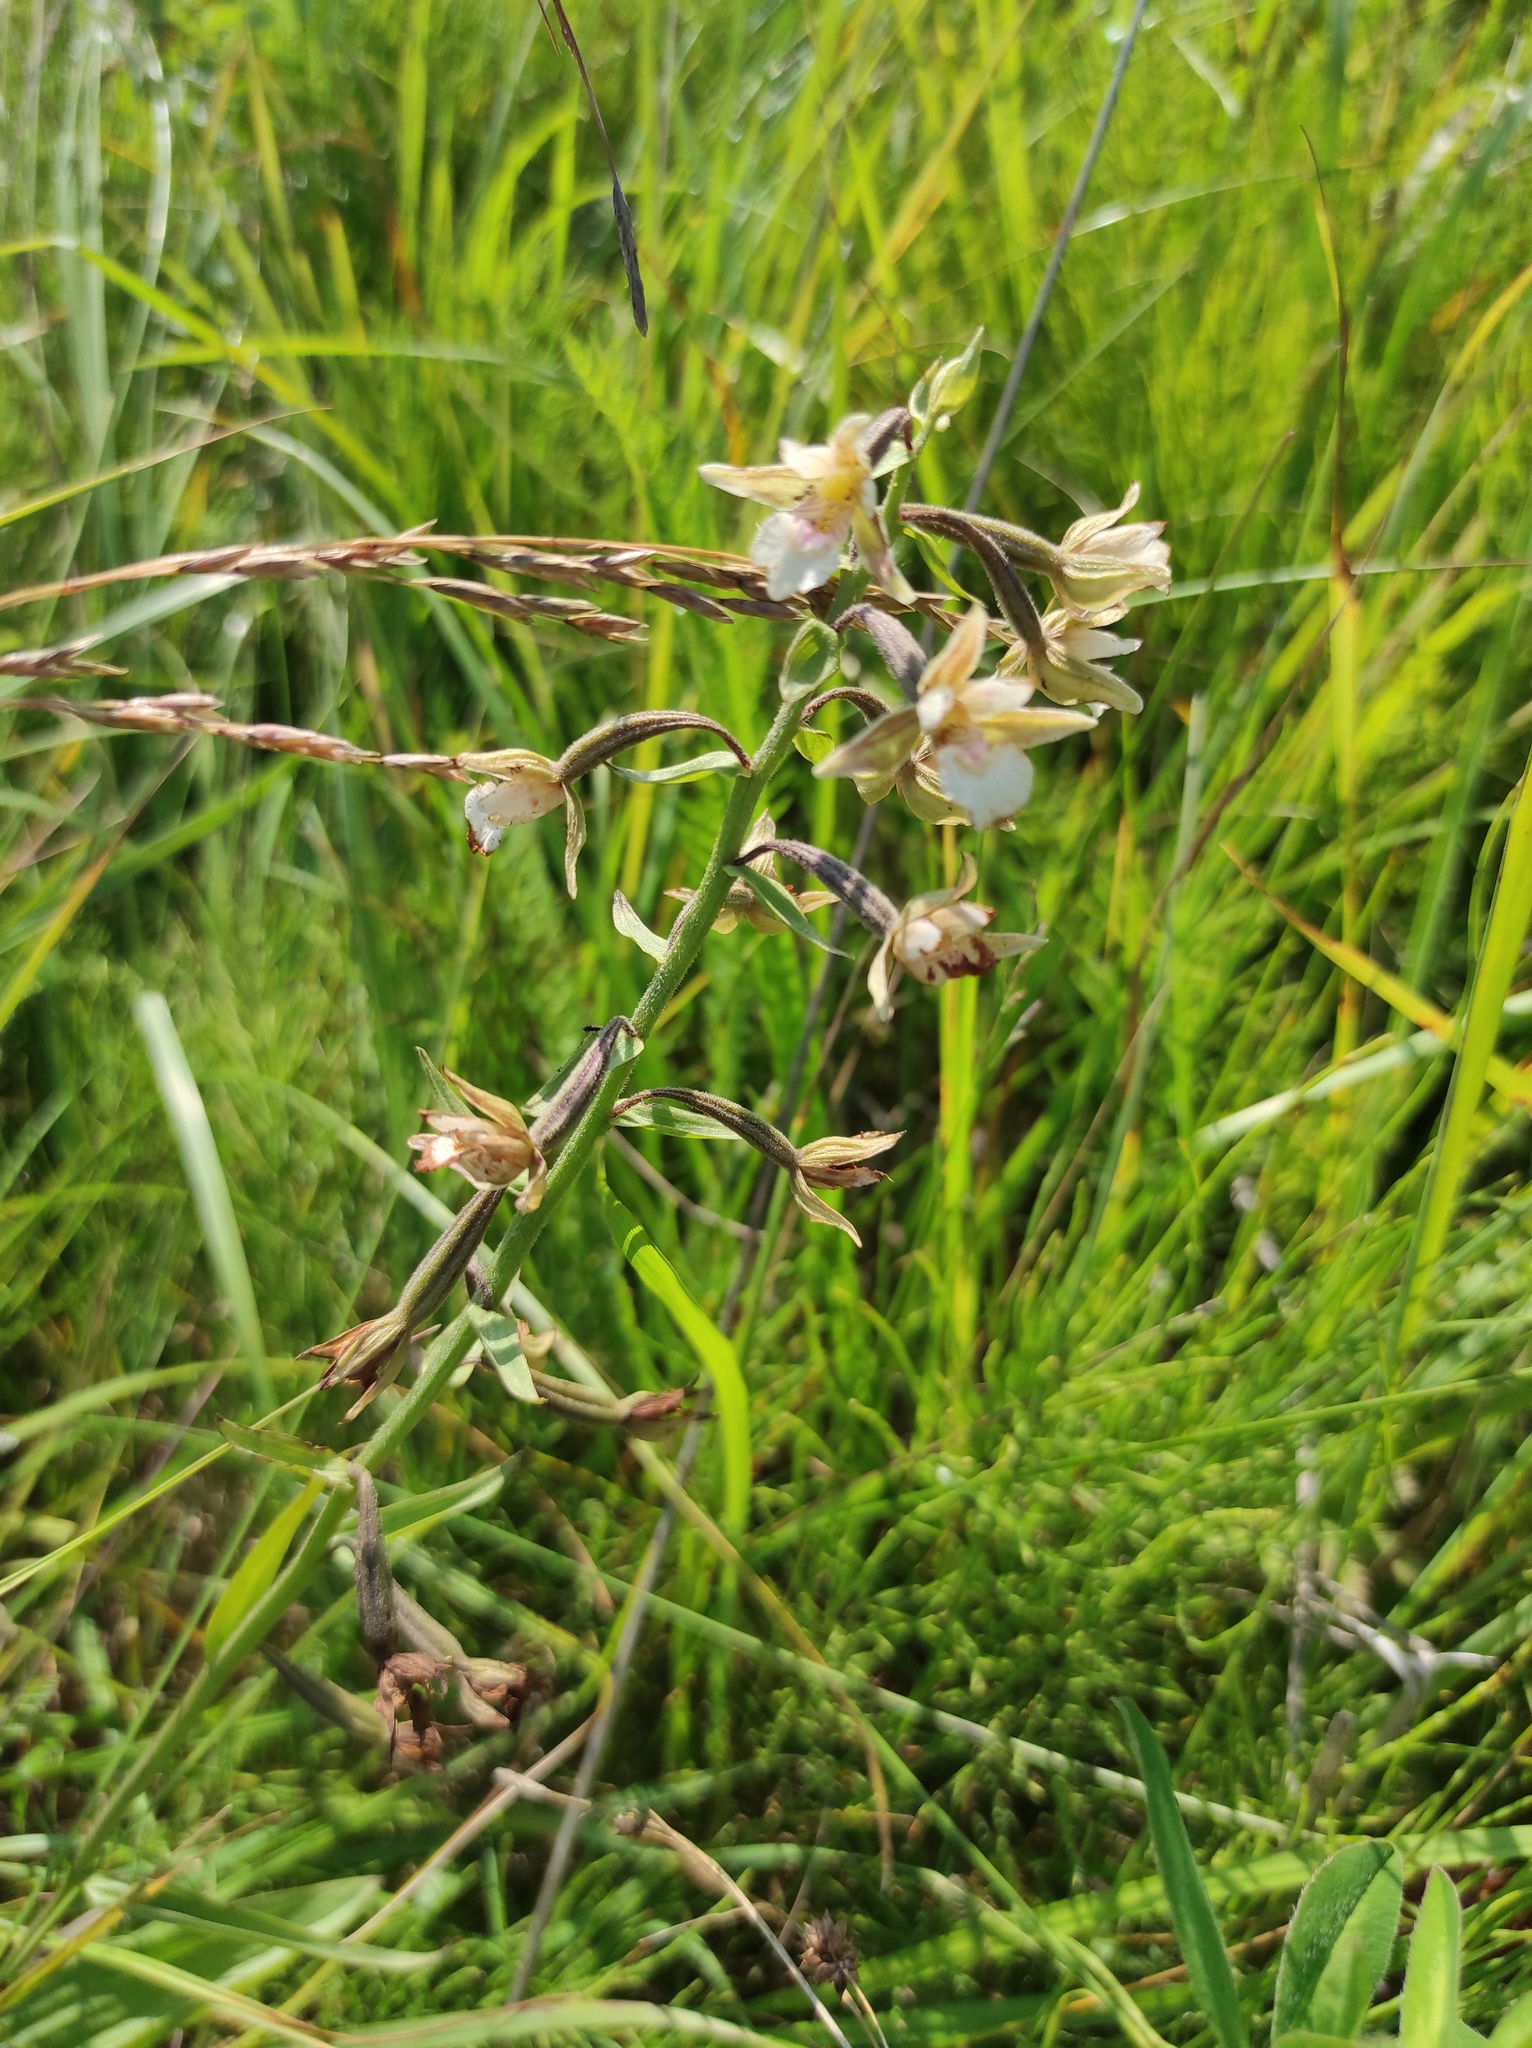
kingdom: Plantae
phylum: Tracheophyta
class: Liliopsida
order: Asparagales
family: Orchidaceae
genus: Epipactis
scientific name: Epipactis palustris
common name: Marsh helleborine
